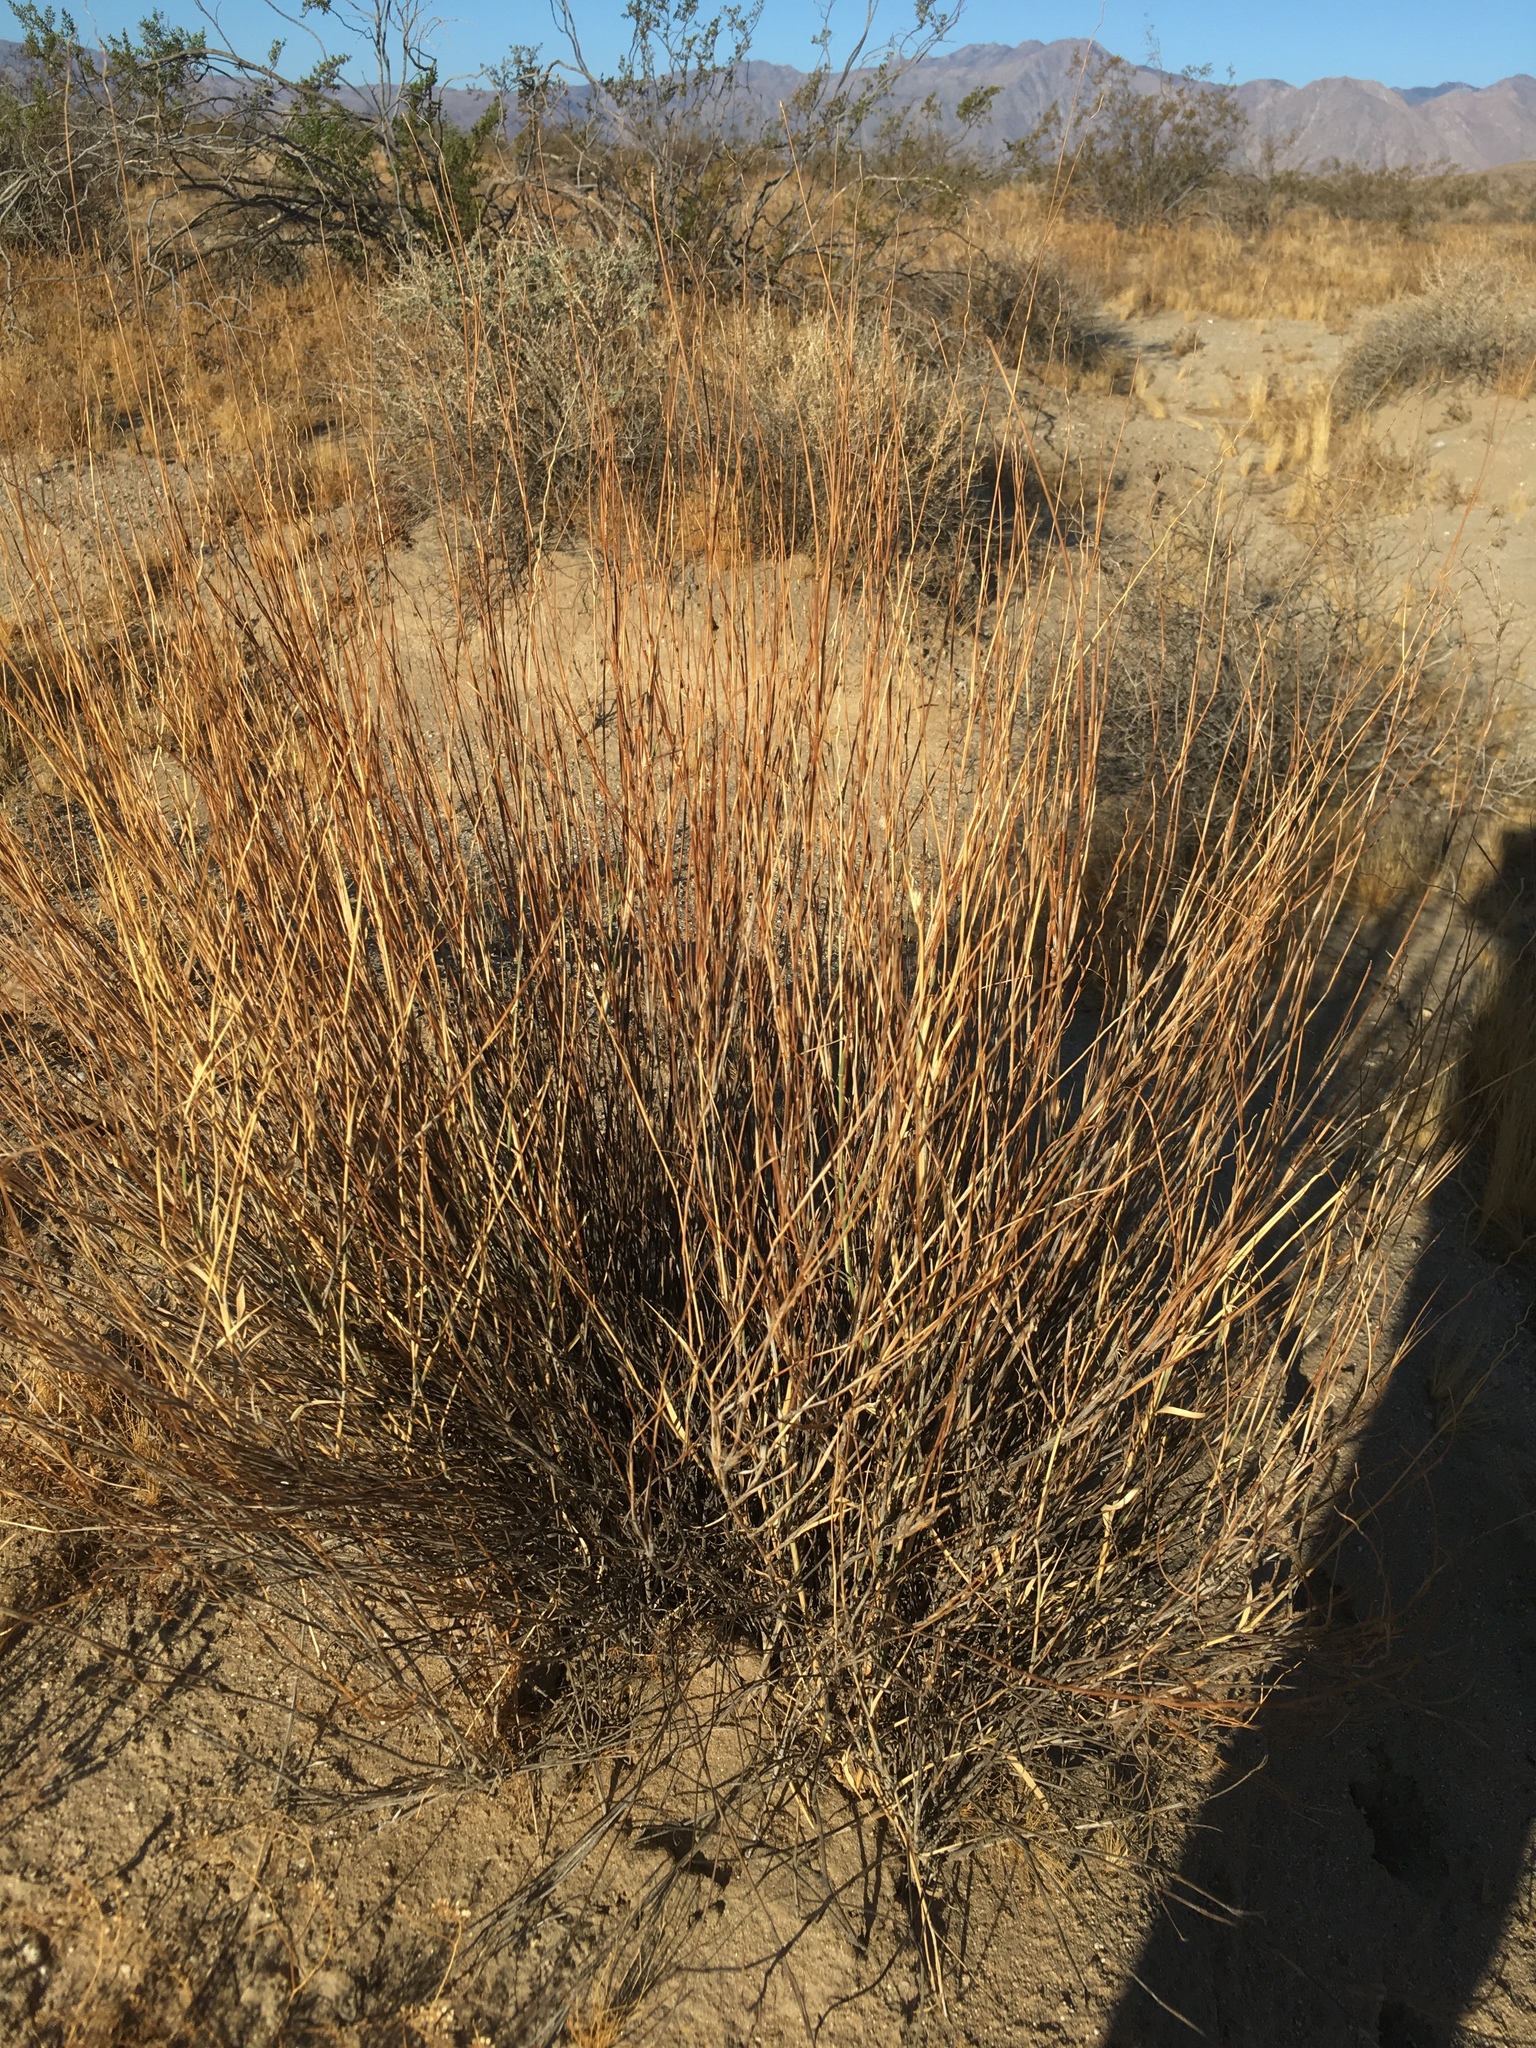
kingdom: Plantae
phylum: Tracheophyta
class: Liliopsida
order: Poales
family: Poaceae
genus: Hilaria
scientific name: Hilaria rigida
